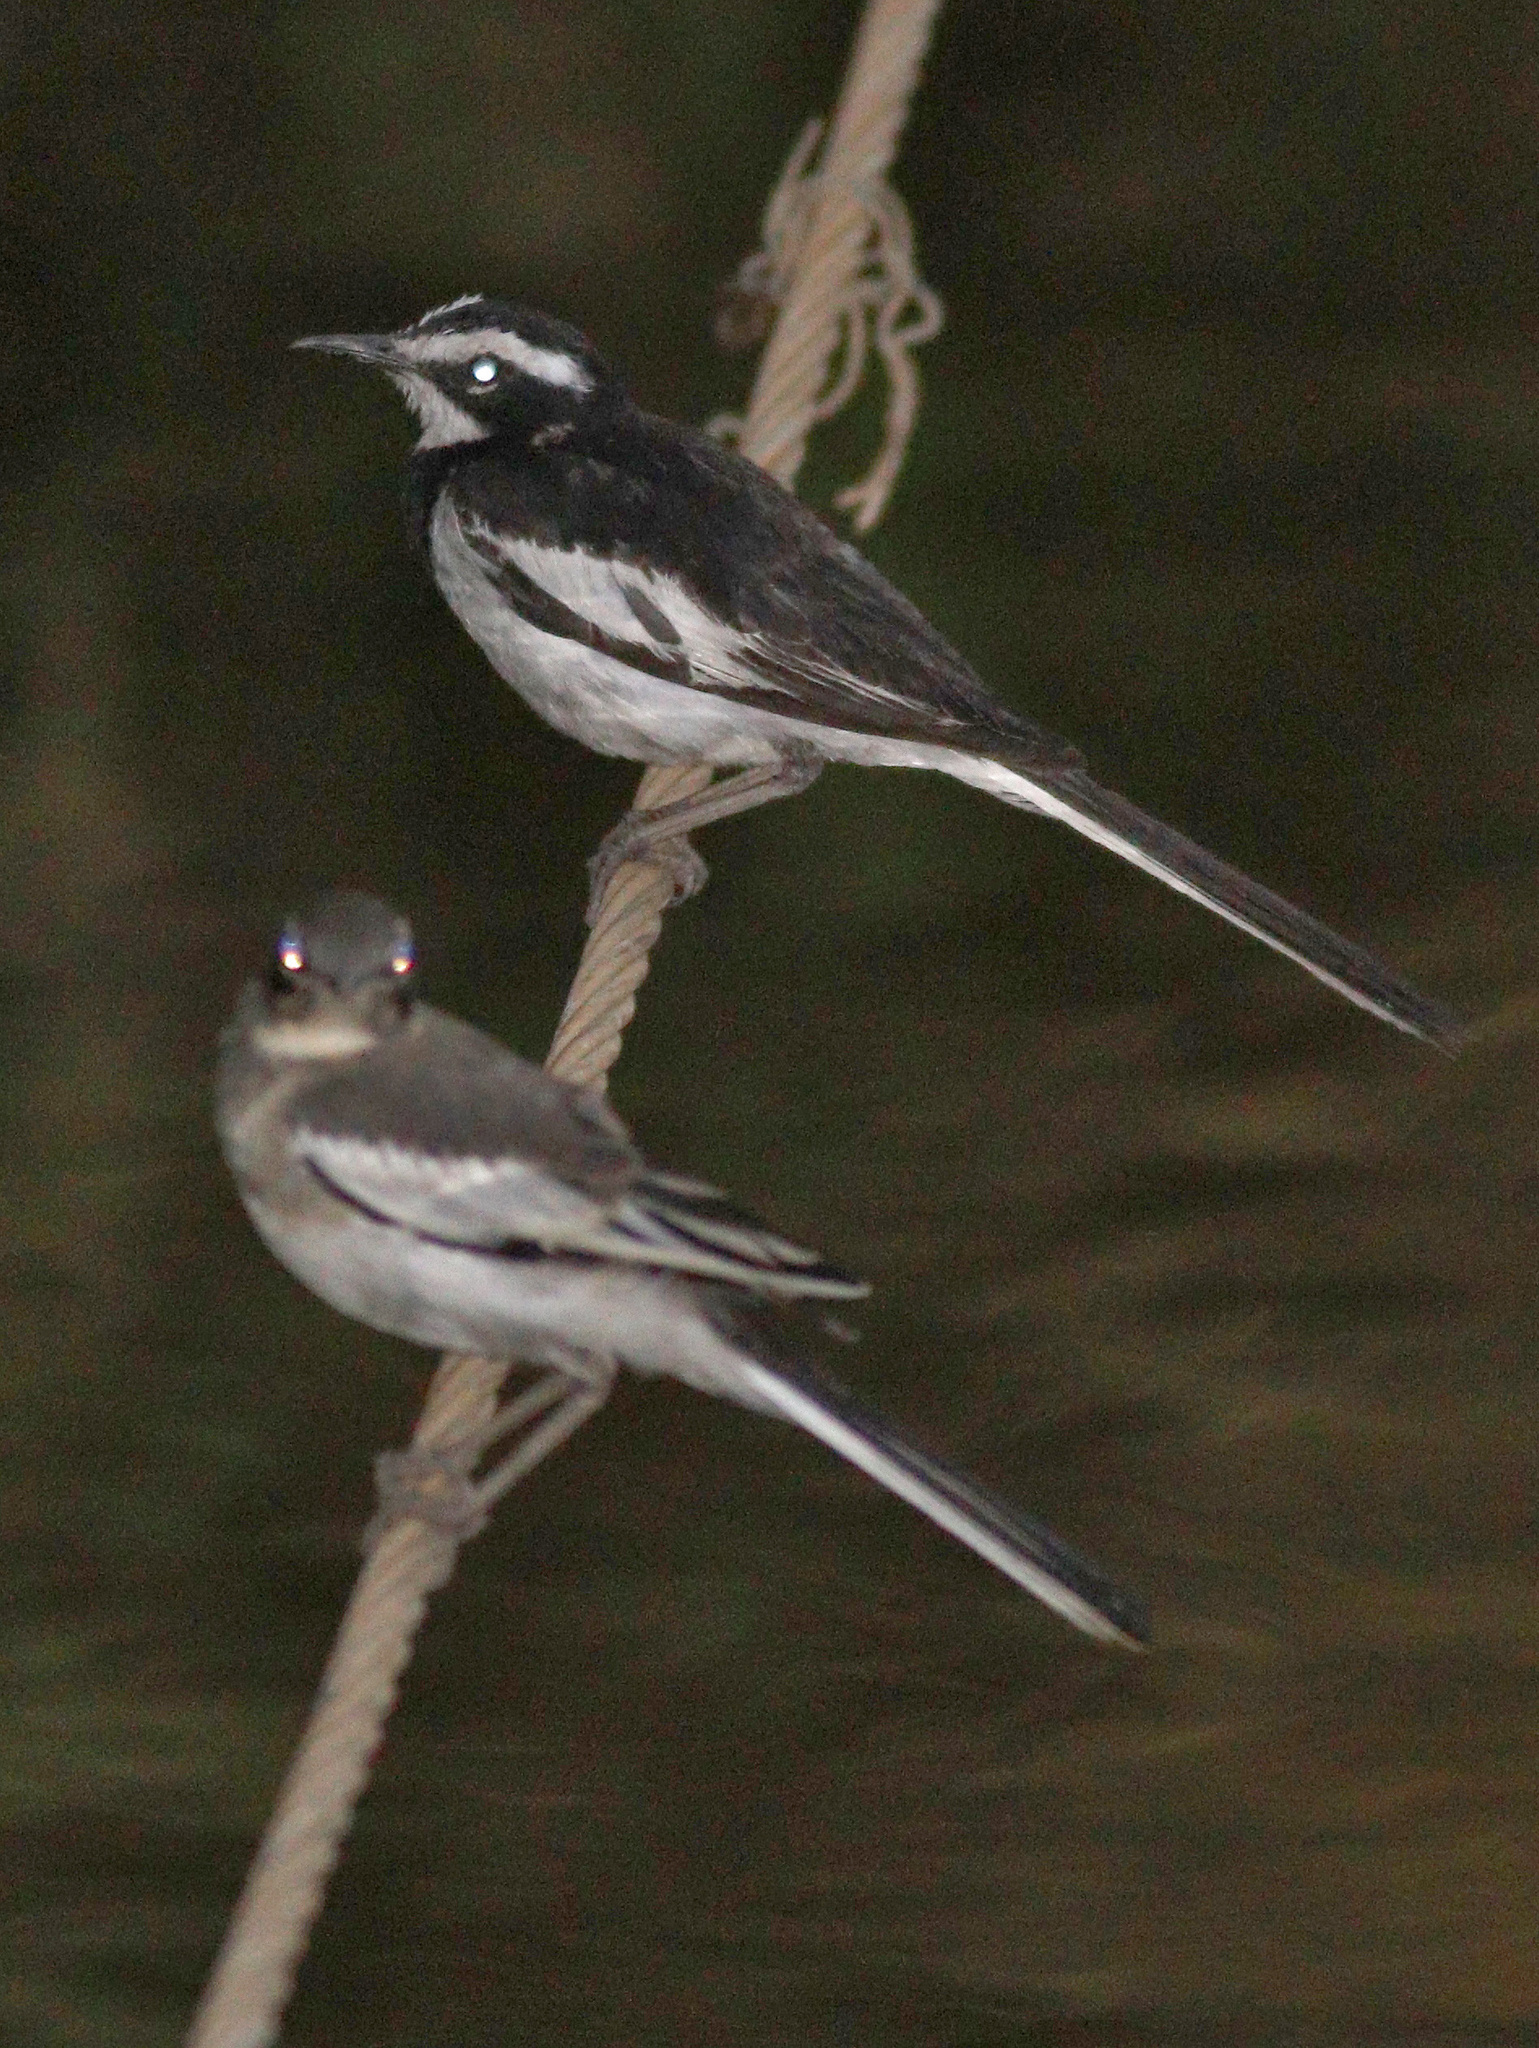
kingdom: Animalia
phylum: Chordata
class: Aves
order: Passeriformes
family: Motacillidae
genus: Motacilla
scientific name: Motacilla aguimp
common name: African pied wagtail
